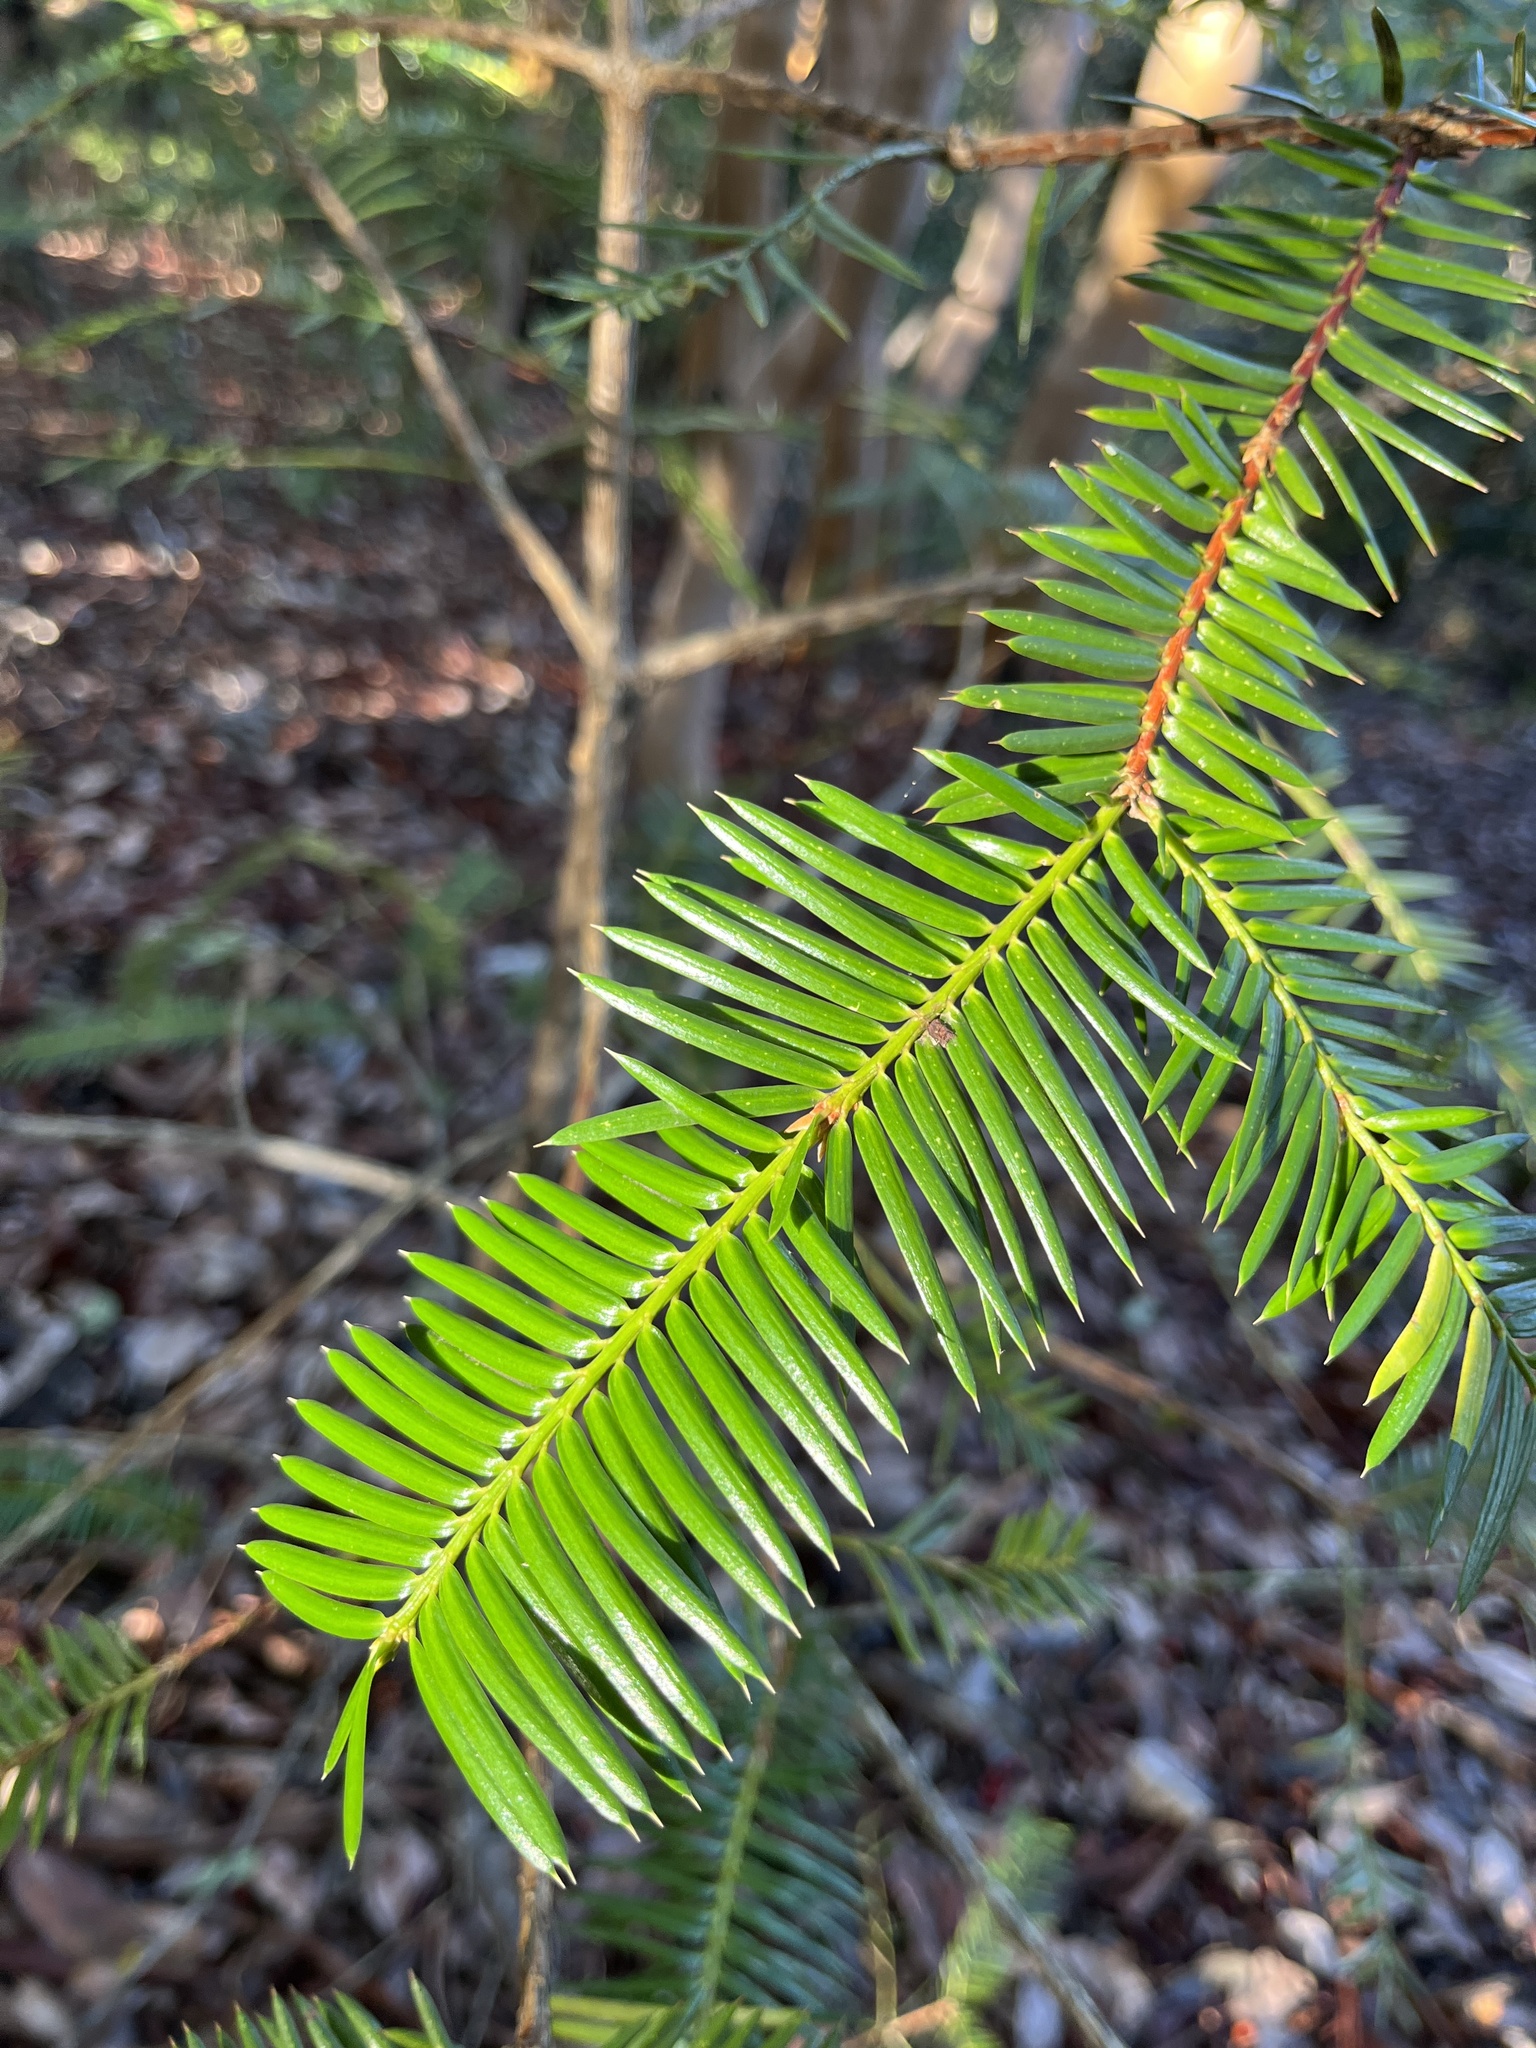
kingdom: Plantae
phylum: Tracheophyta
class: Pinopsida
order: Pinales
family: Taxaceae
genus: Torreya
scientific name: Torreya californica
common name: California torreya
